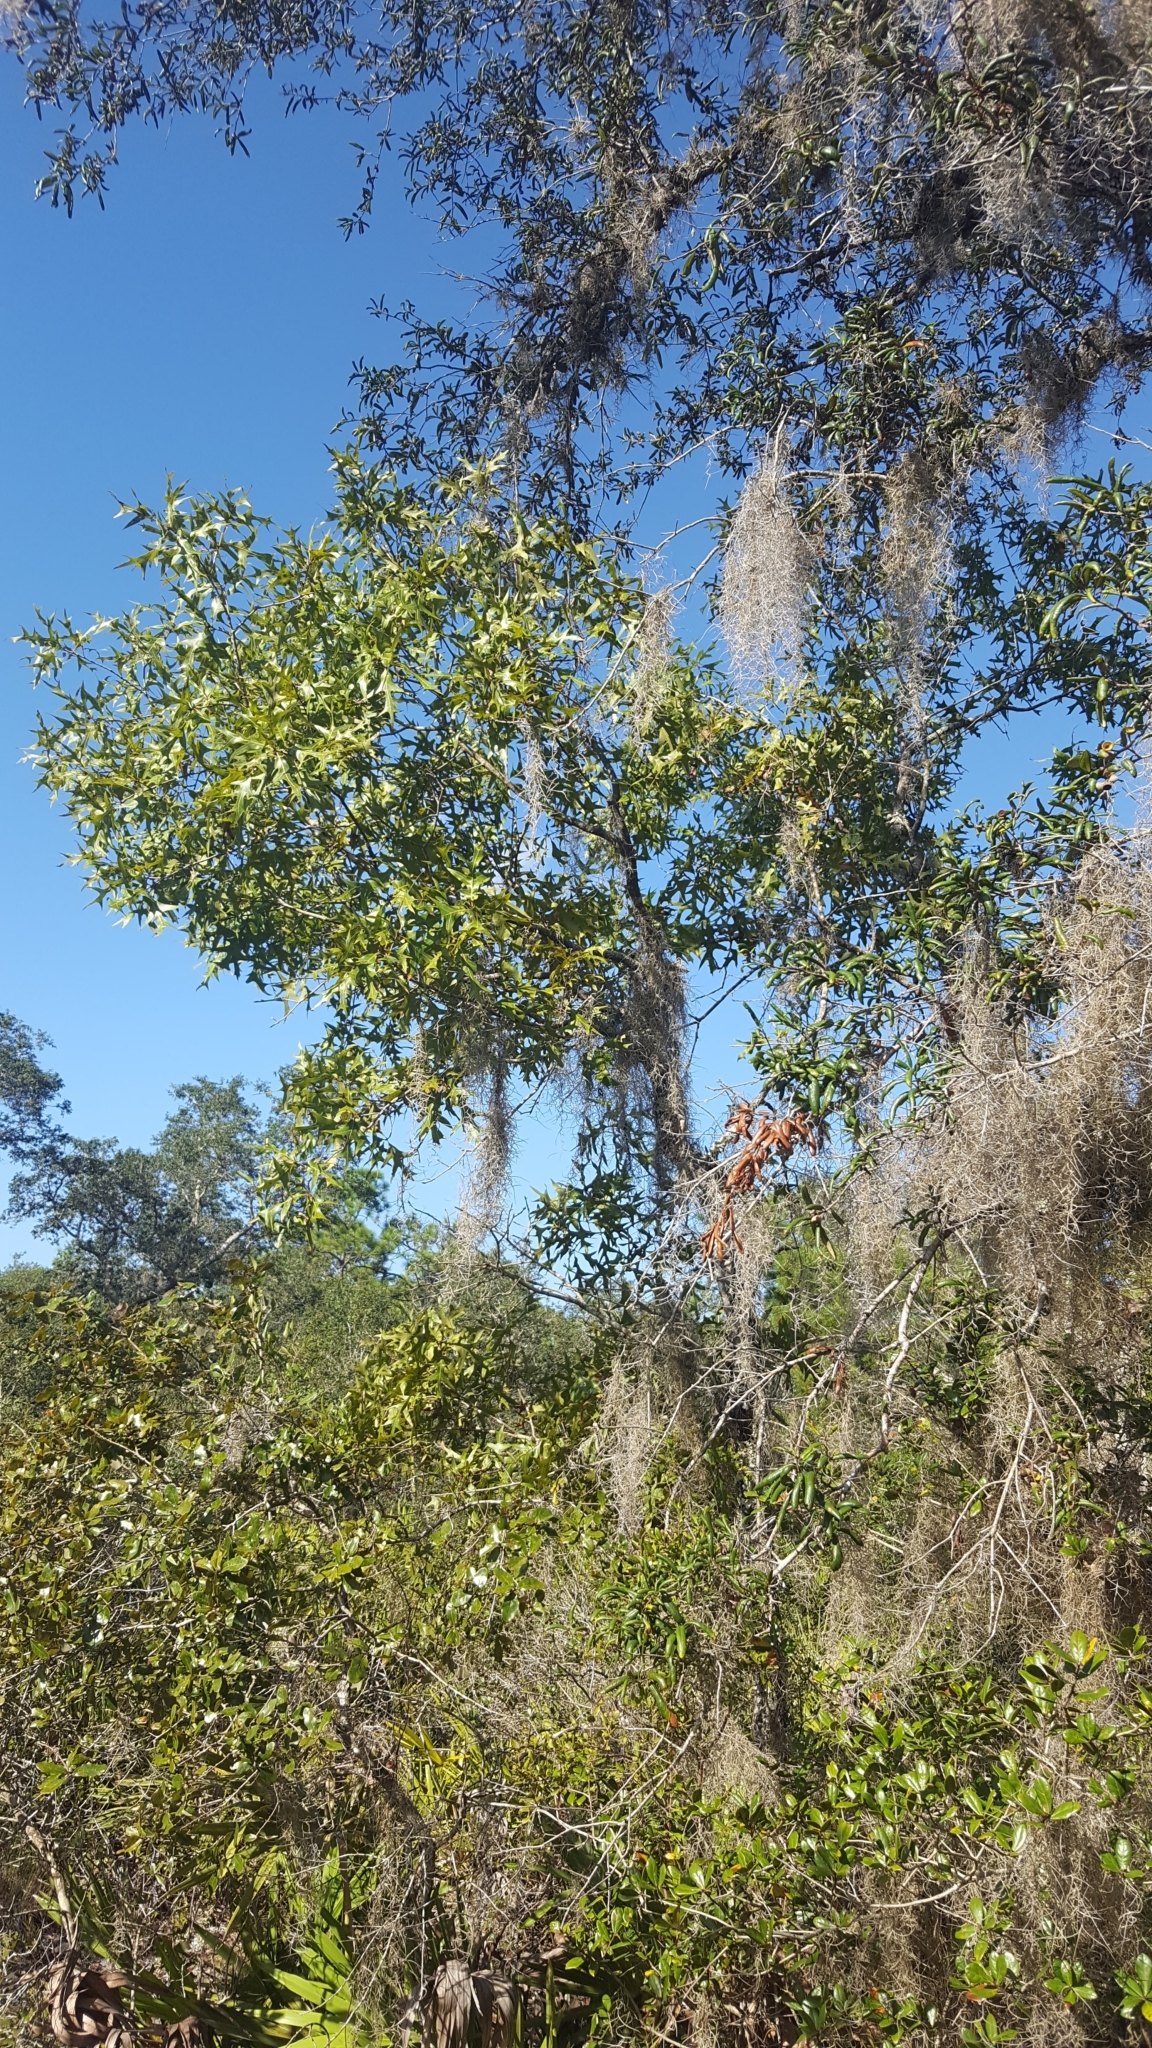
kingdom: Plantae
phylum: Tracheophyta
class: Magnoliopsida
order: Fagales
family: Fagaceae
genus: Quercus
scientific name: Quercus laevis
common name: Turkey oak
